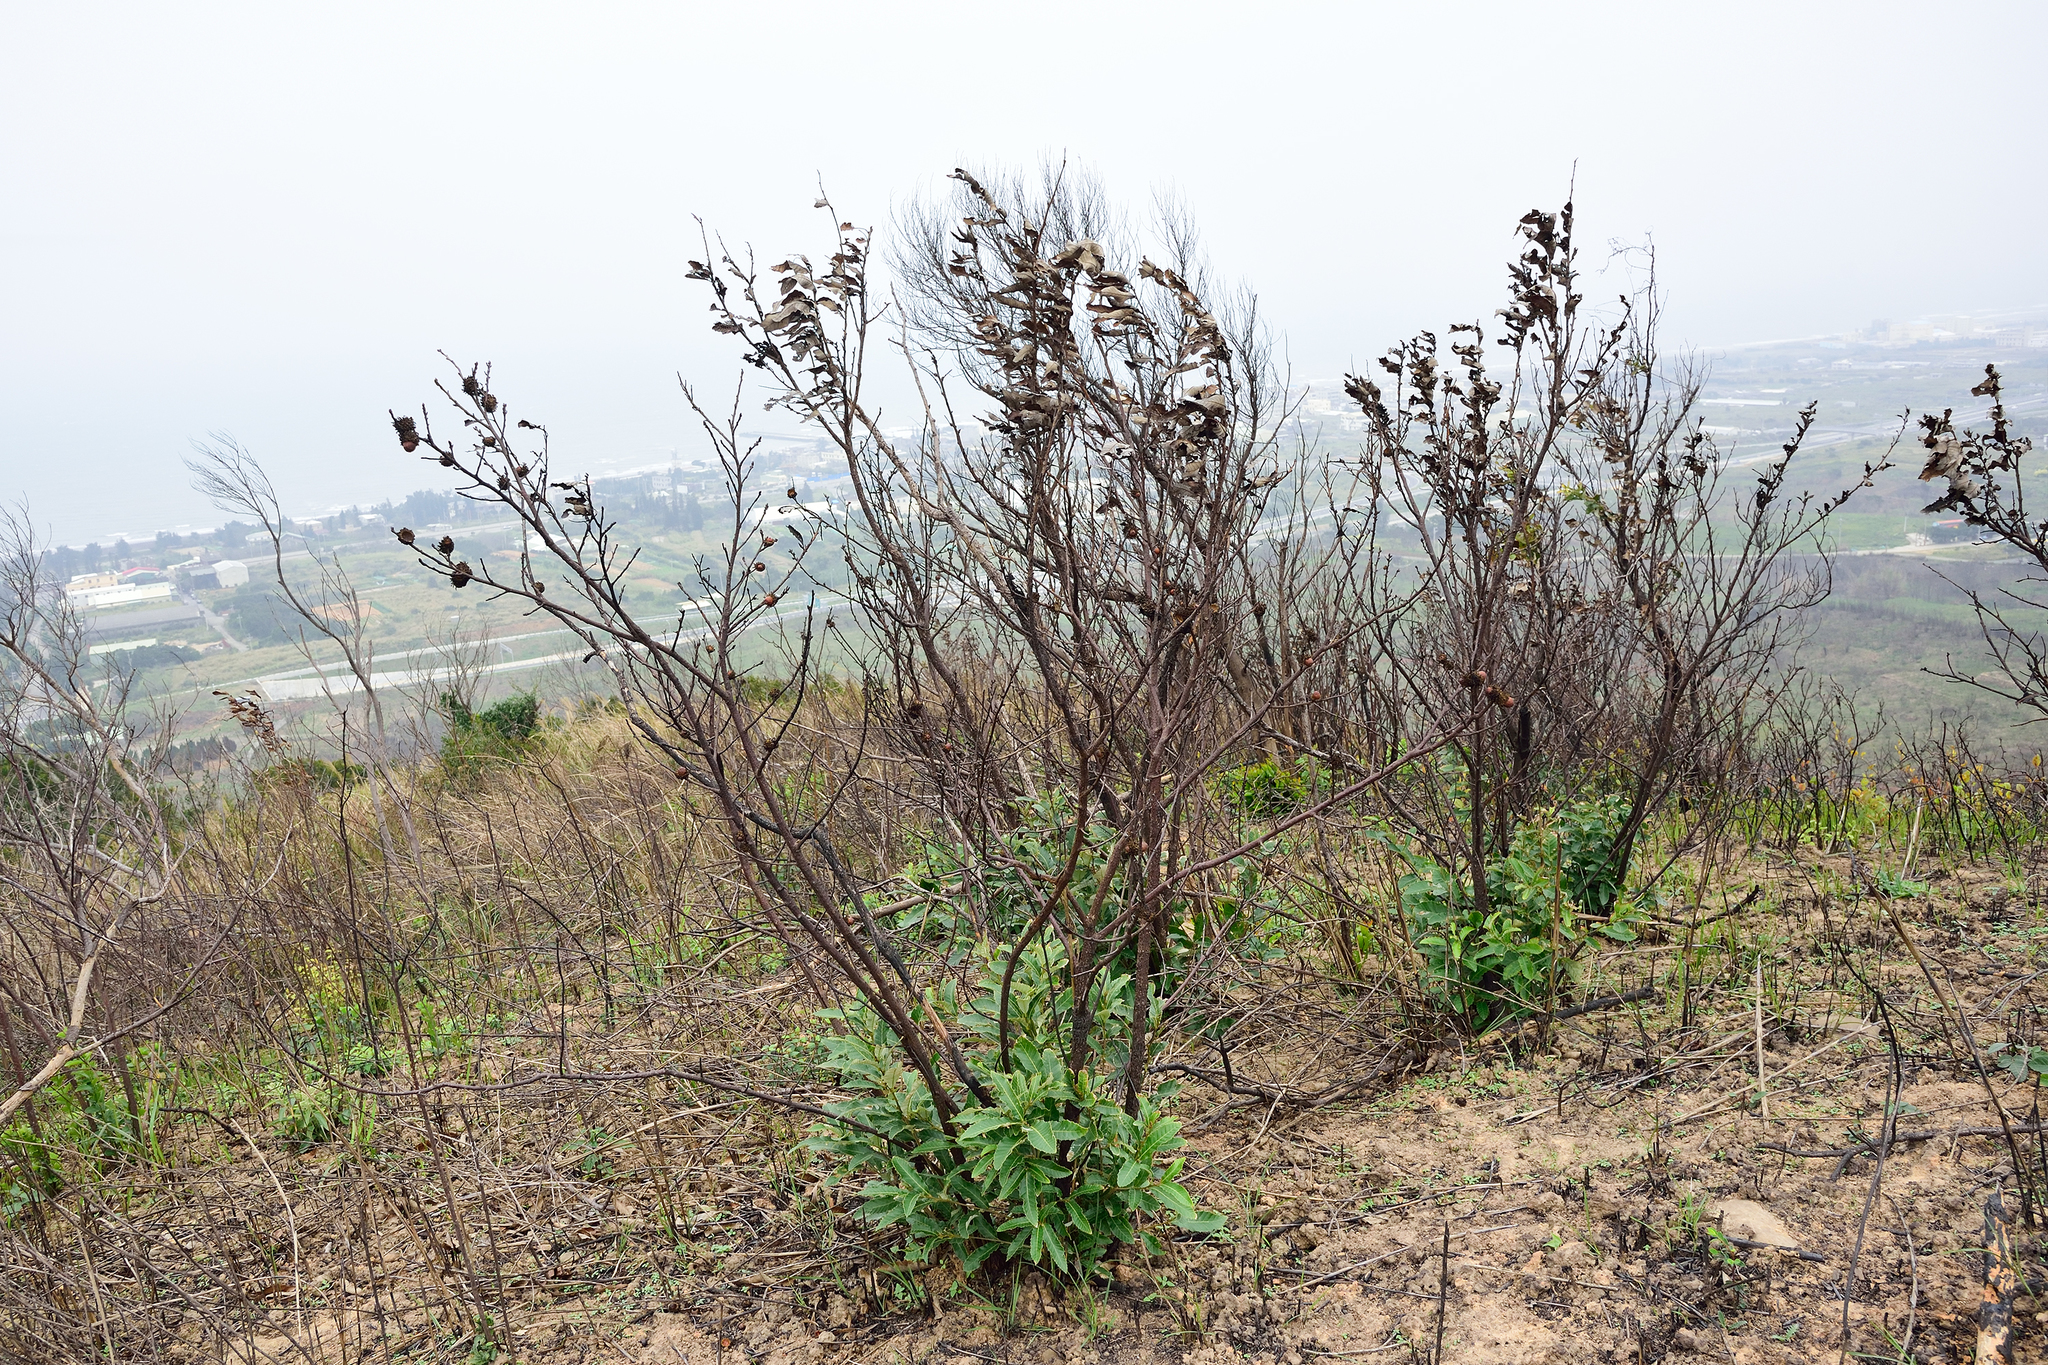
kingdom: Plantae
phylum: Tracheophyta
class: Magnoliopsida
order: Fagales
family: Fagaceae
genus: Quercus
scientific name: Quercus variabilis
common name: Chinese cork oak
